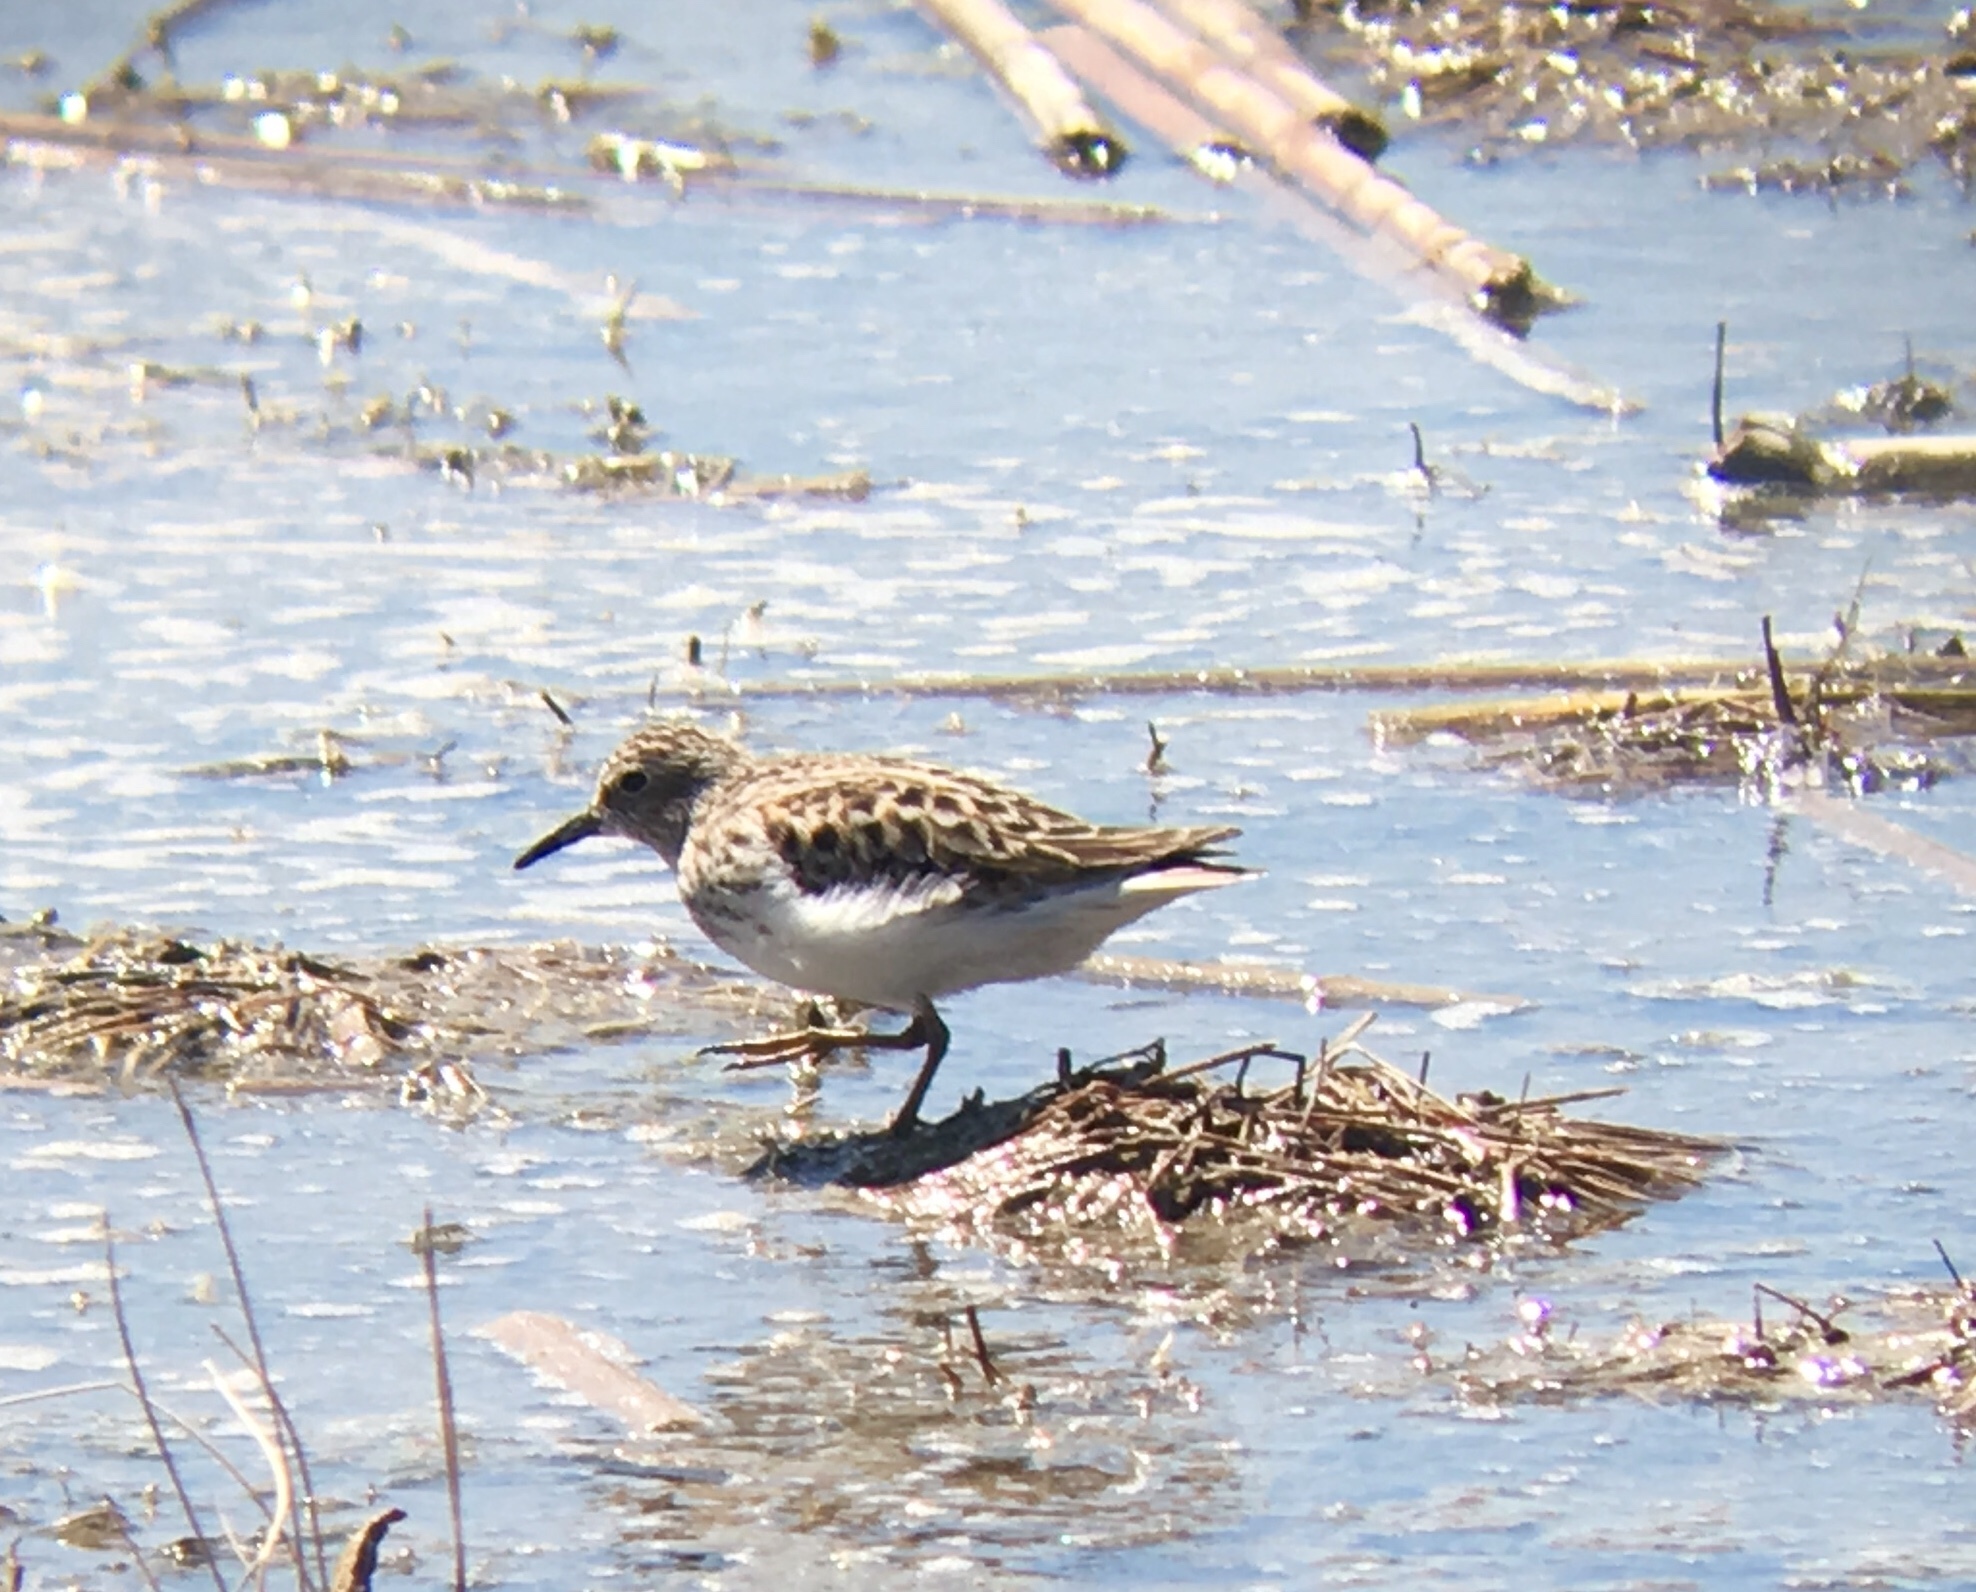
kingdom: Animalia
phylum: Chordata
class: Aves
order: Charadriiformes
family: Scolopacidae
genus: Calidris
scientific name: Calidris minutilla
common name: Least sandpiper
